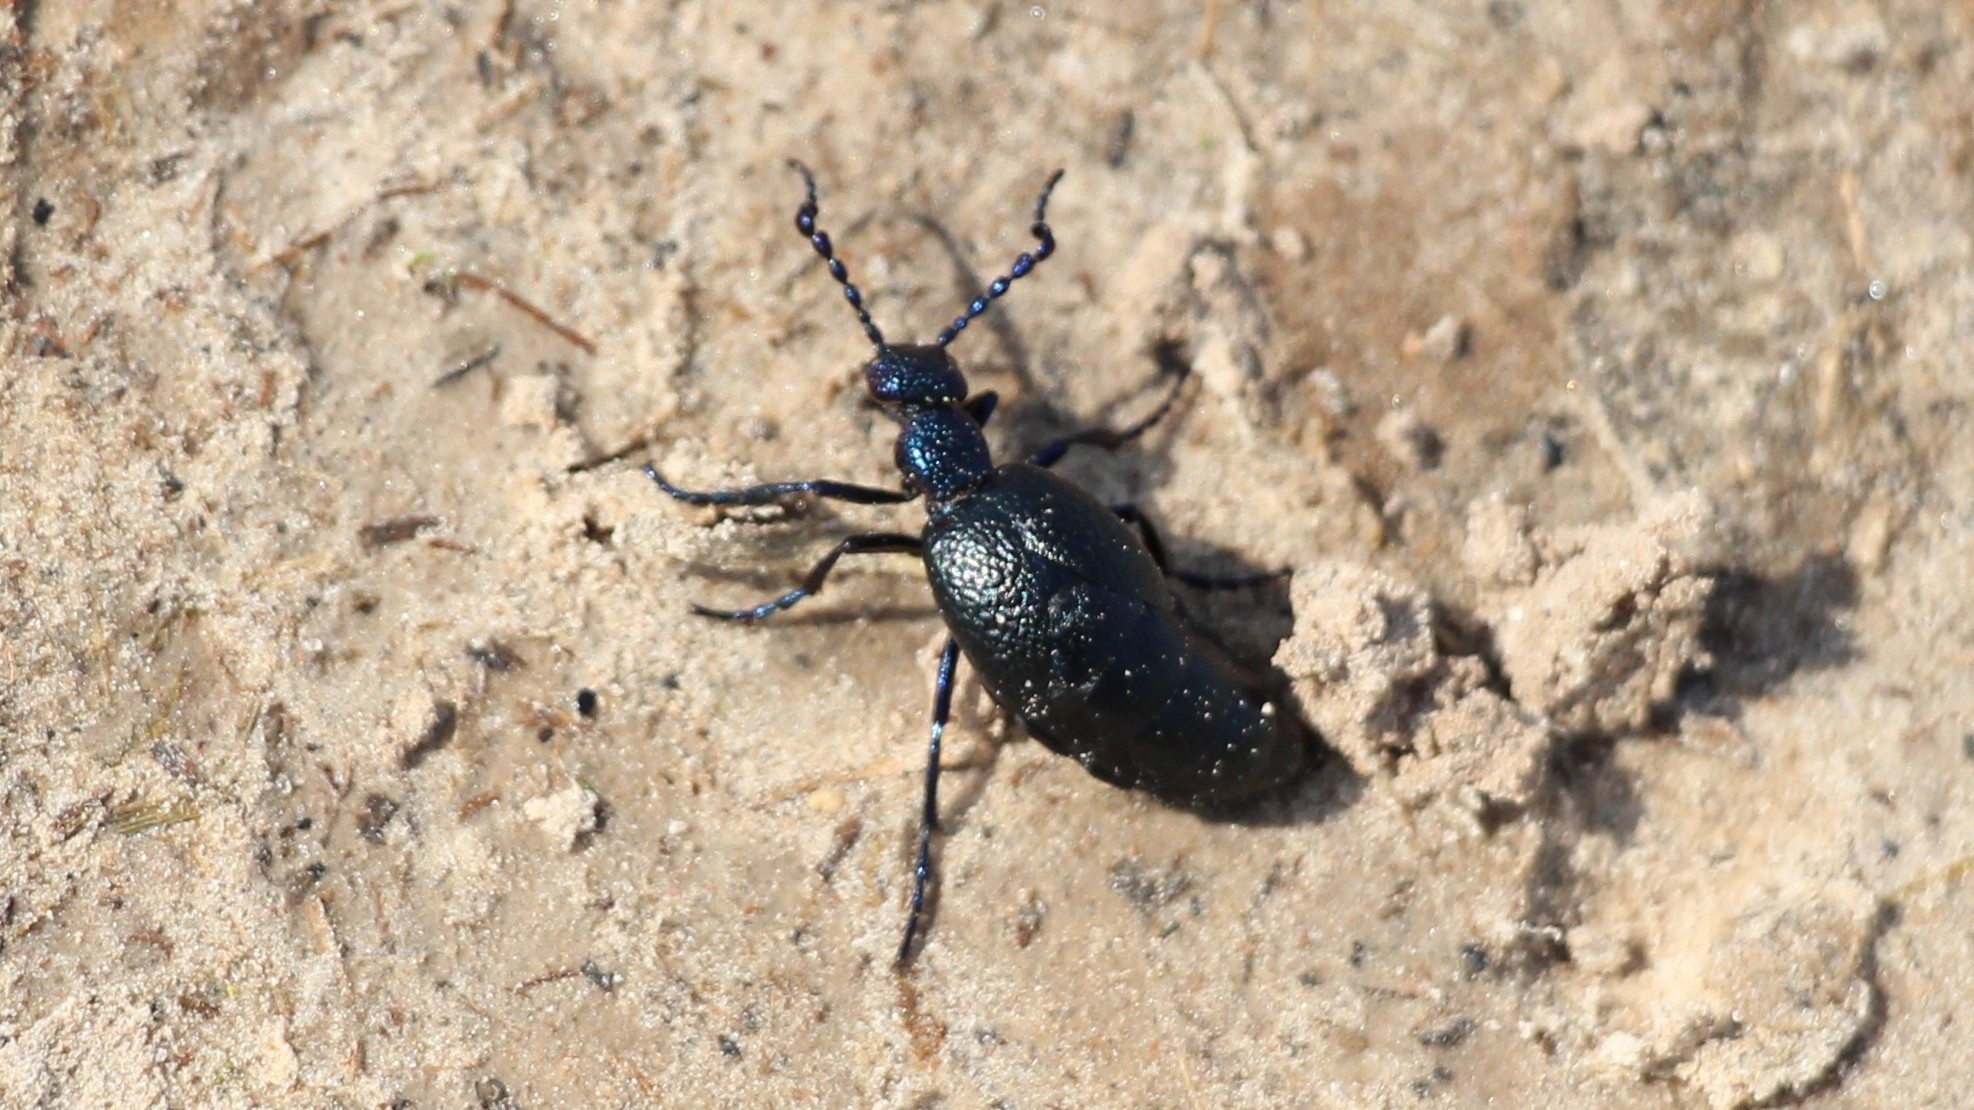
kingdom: Animalia
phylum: Arthropoda
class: Insecta
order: Coleoptera
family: Meloidae
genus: Meloe
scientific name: Meloe proscarabaeus
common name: Black oil-beetle
